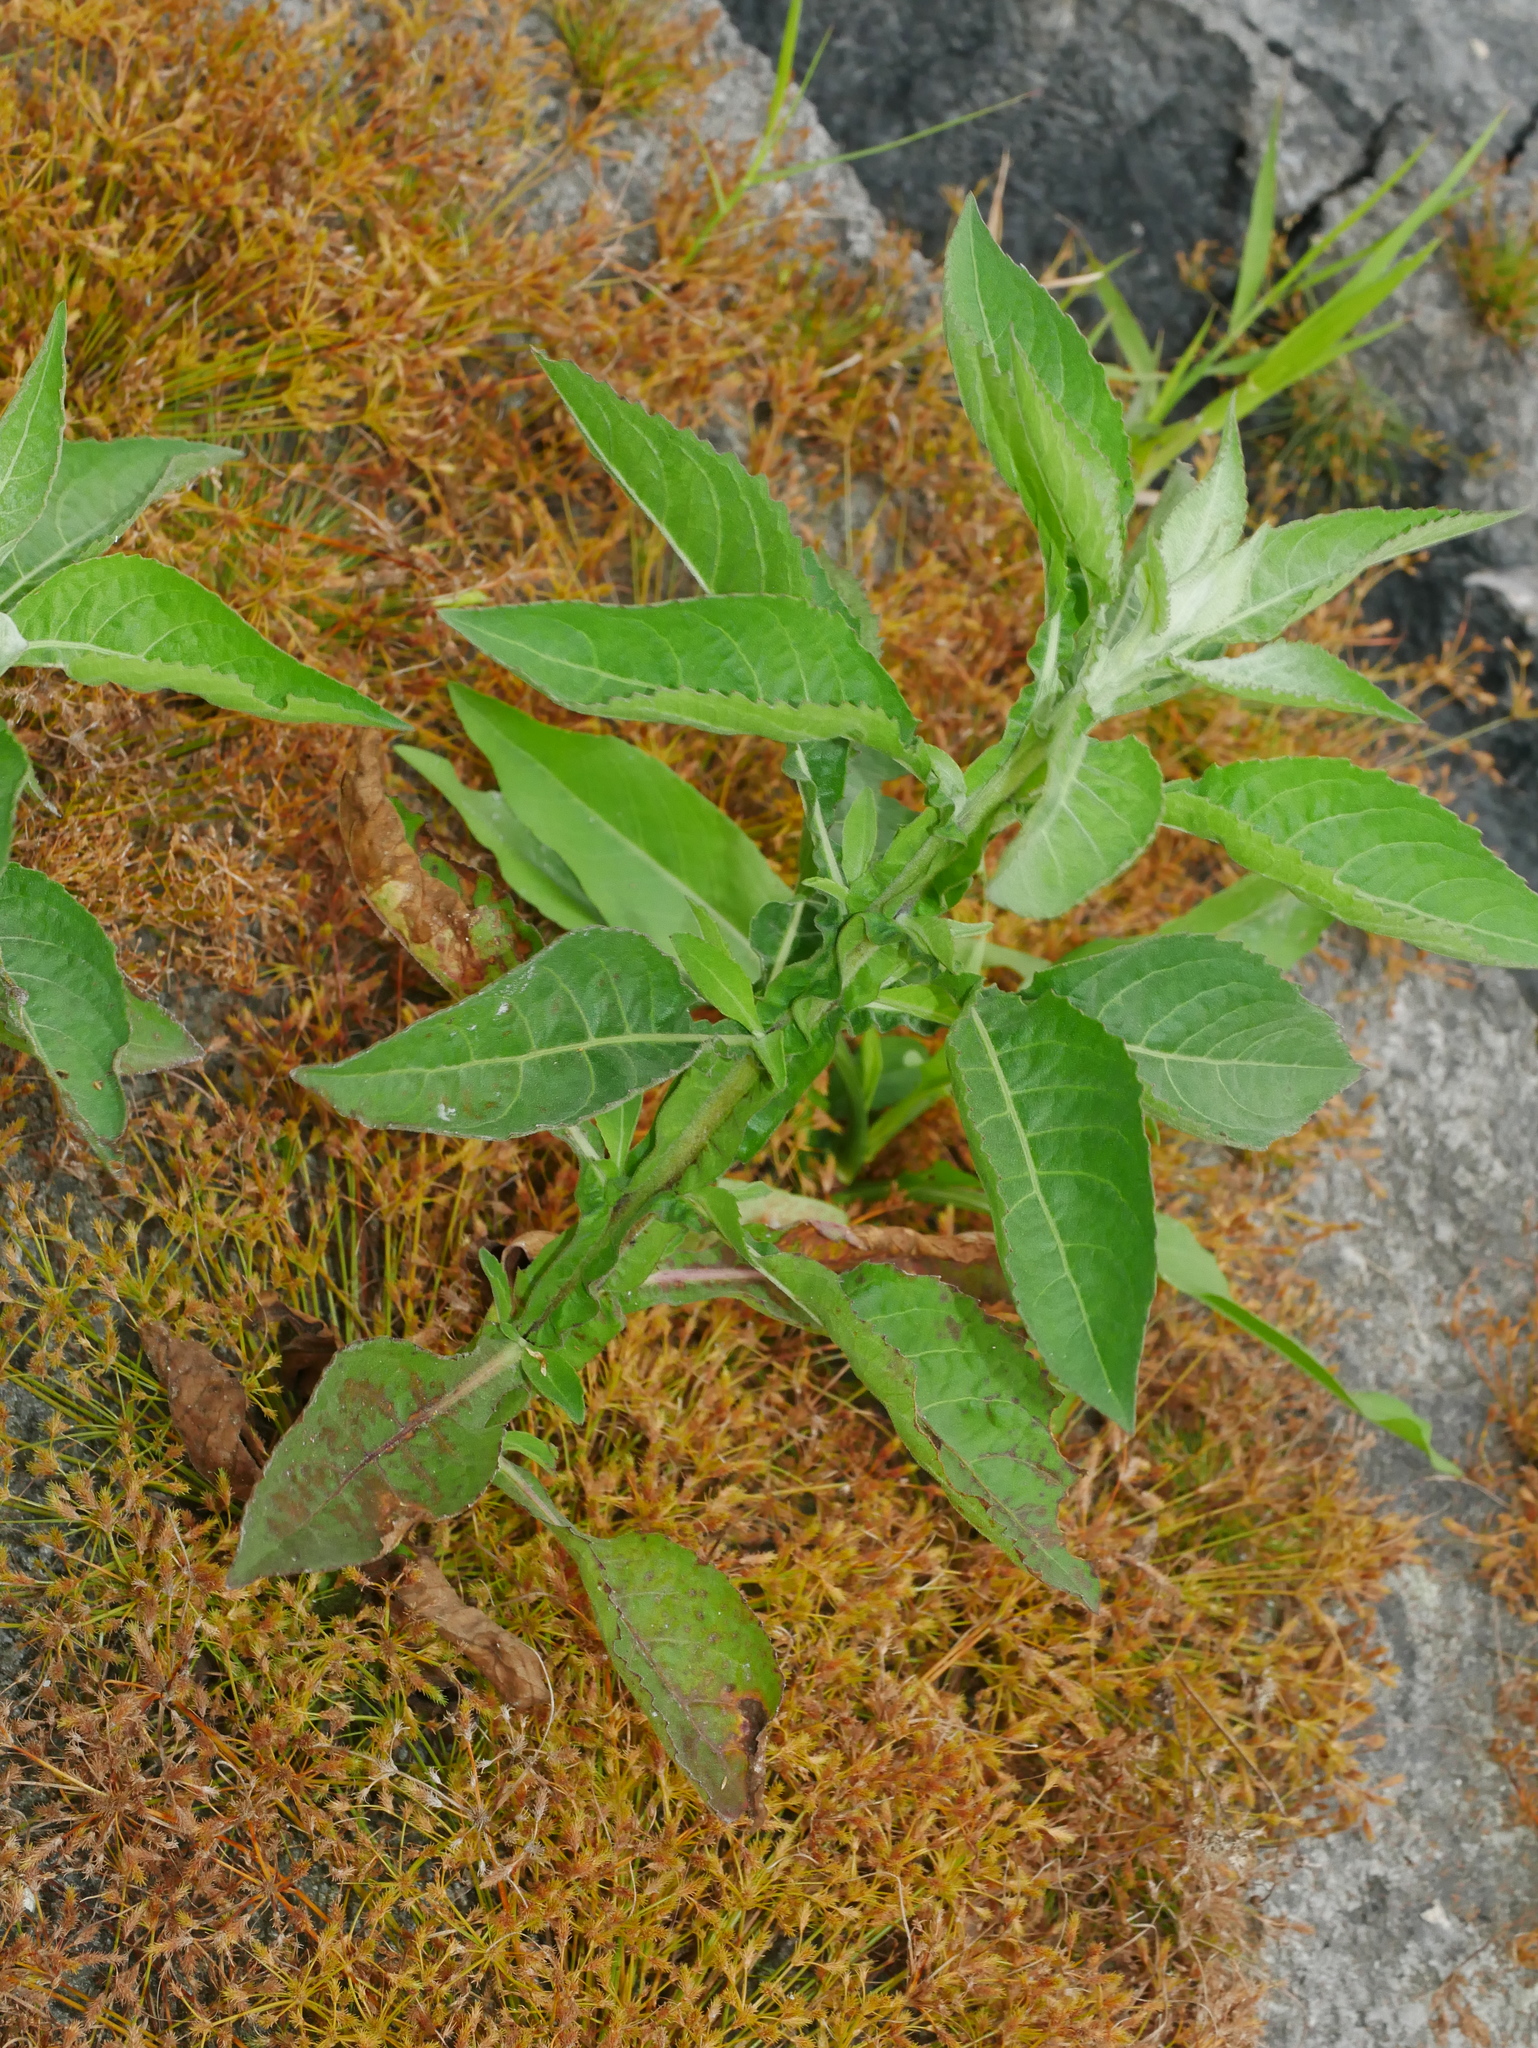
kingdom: Plantae
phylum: Tracheophyta
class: Magnoliopsida
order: Asterales
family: Asteraceae
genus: Pluchea
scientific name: Pluchea sagittalis
